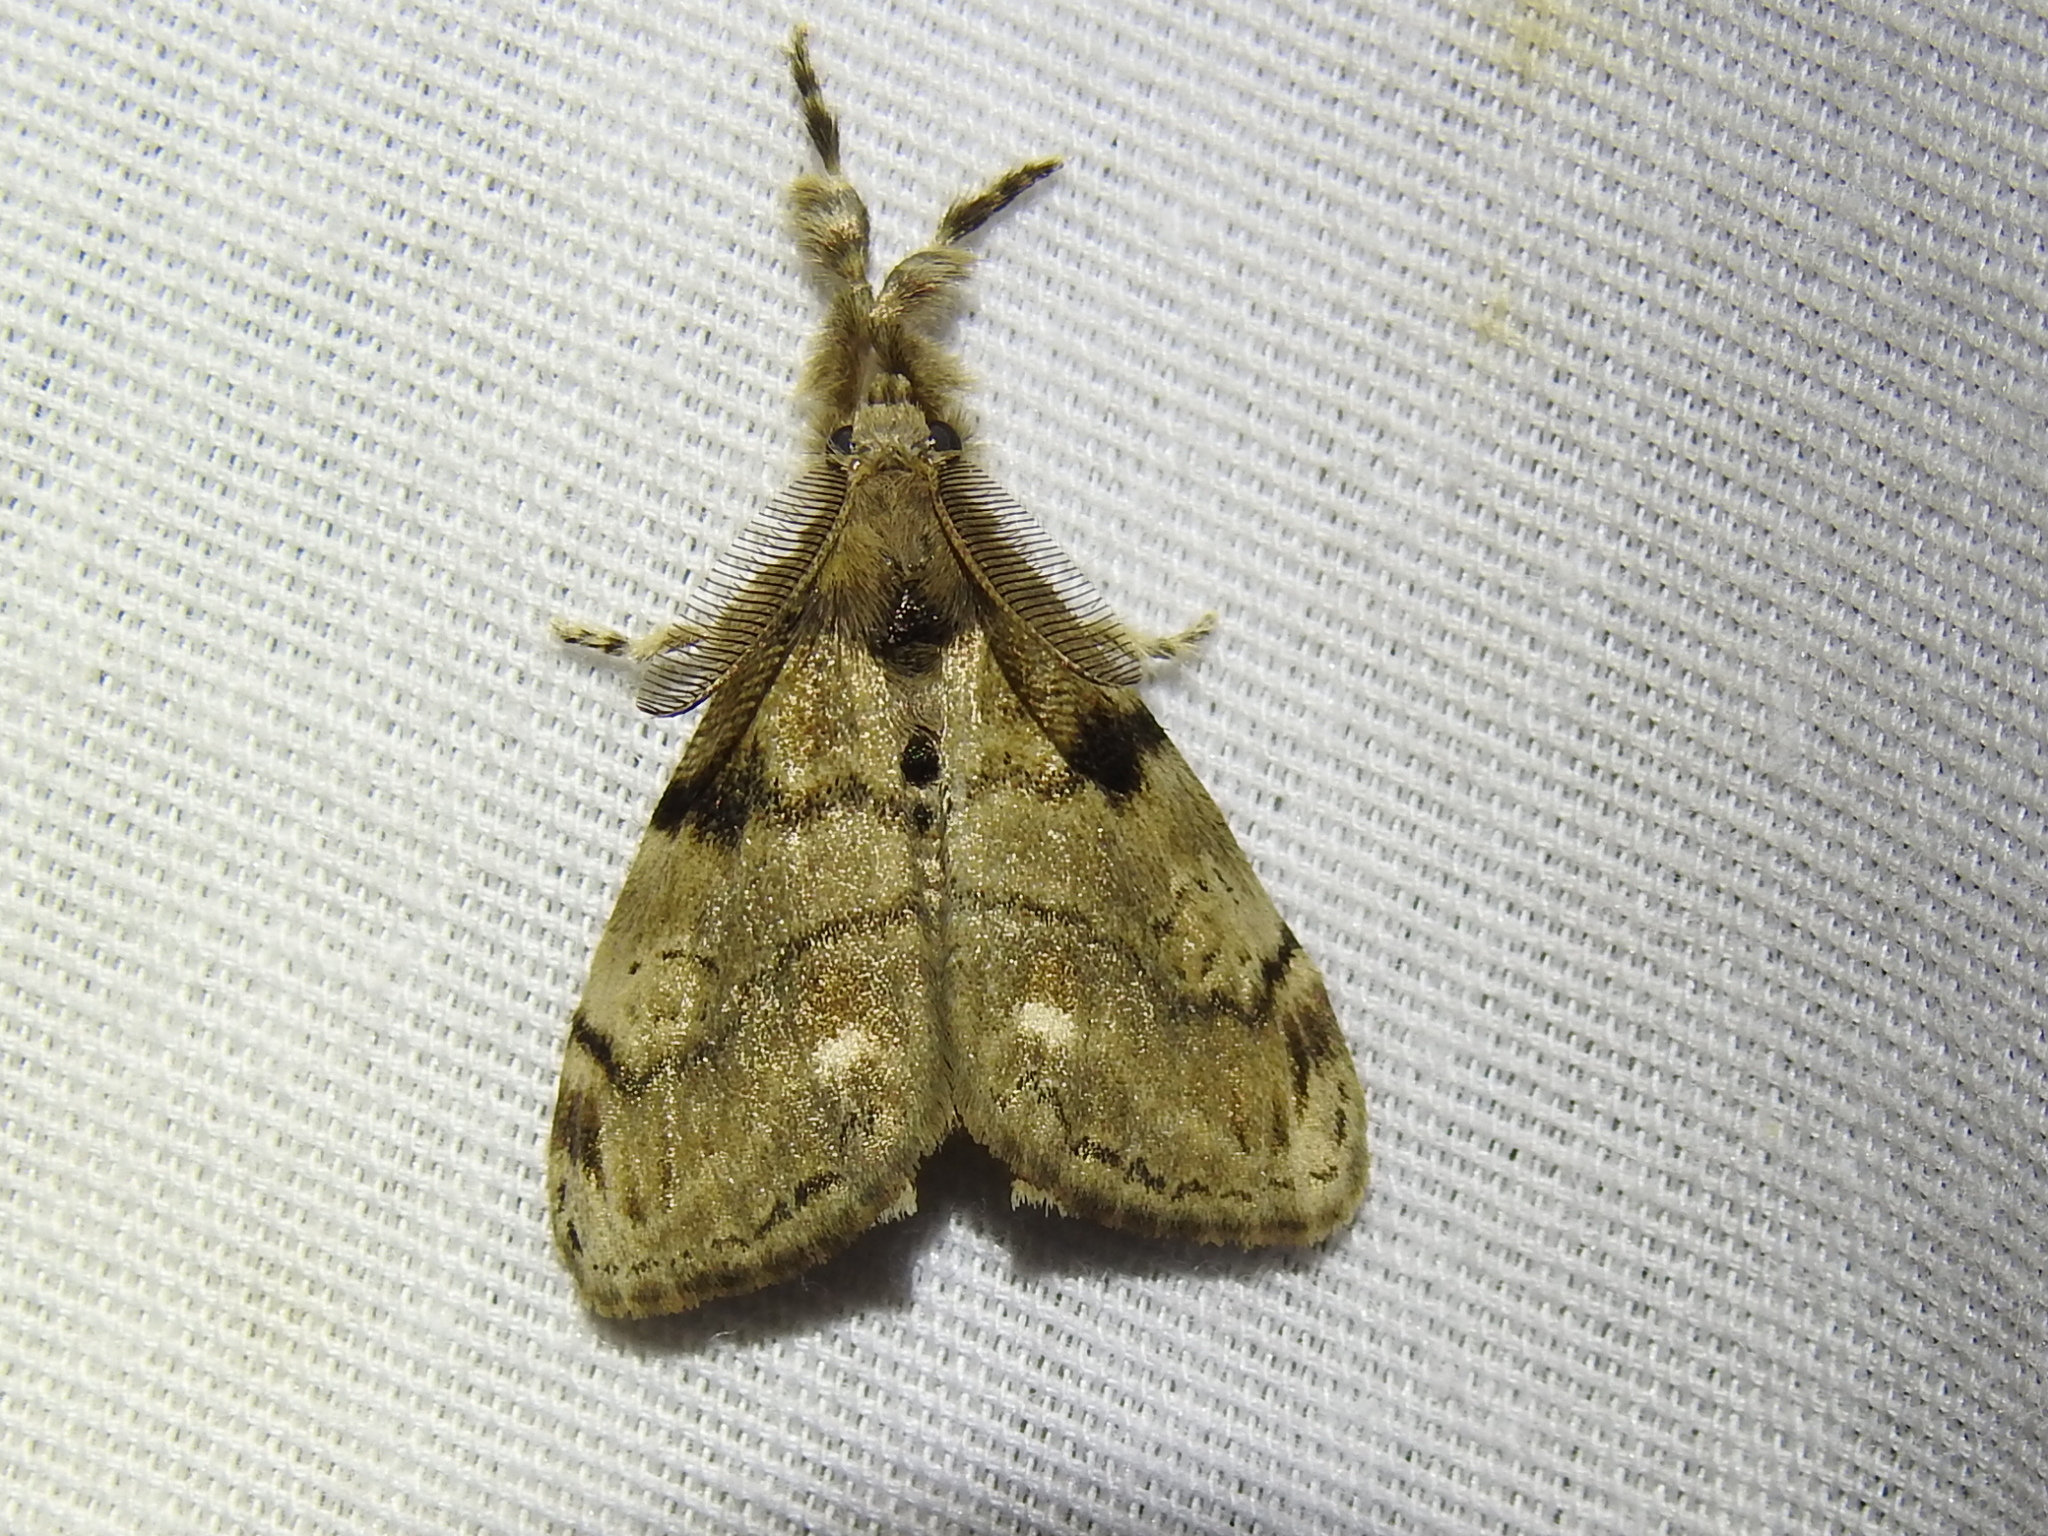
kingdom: Animalia
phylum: Arthropoda
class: Insecta
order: Lepidoptera
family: Erebidae
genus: Orgyia
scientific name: Orgyia leucostigma
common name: White-marked tussock moth
